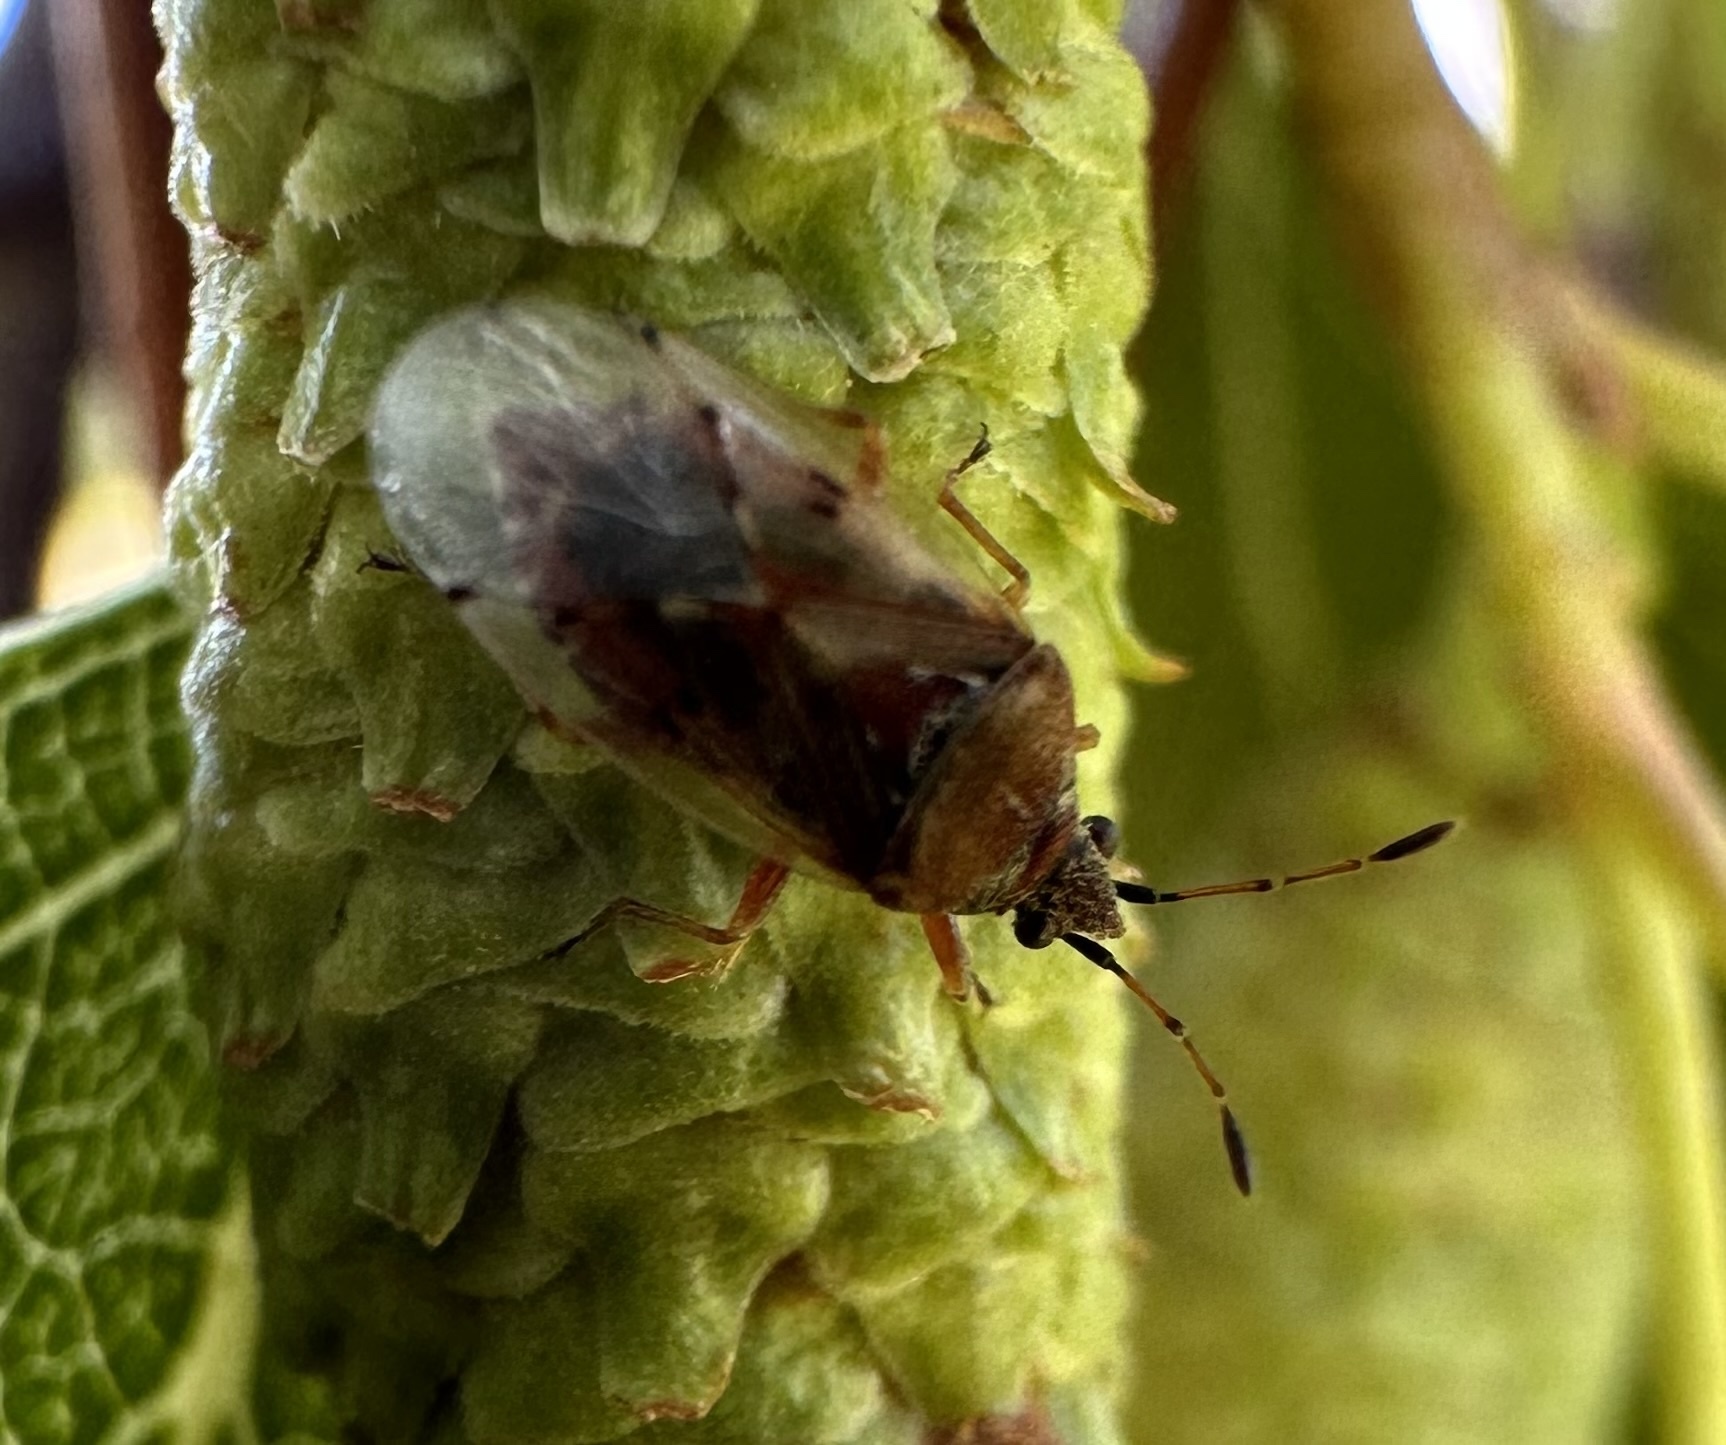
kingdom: Animalia
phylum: Arthropoda
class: Insecta
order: Hemiptera
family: Lygaeidae
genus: Kleidocerys
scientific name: Kleidocerys resedae
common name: Birch catkin bug
